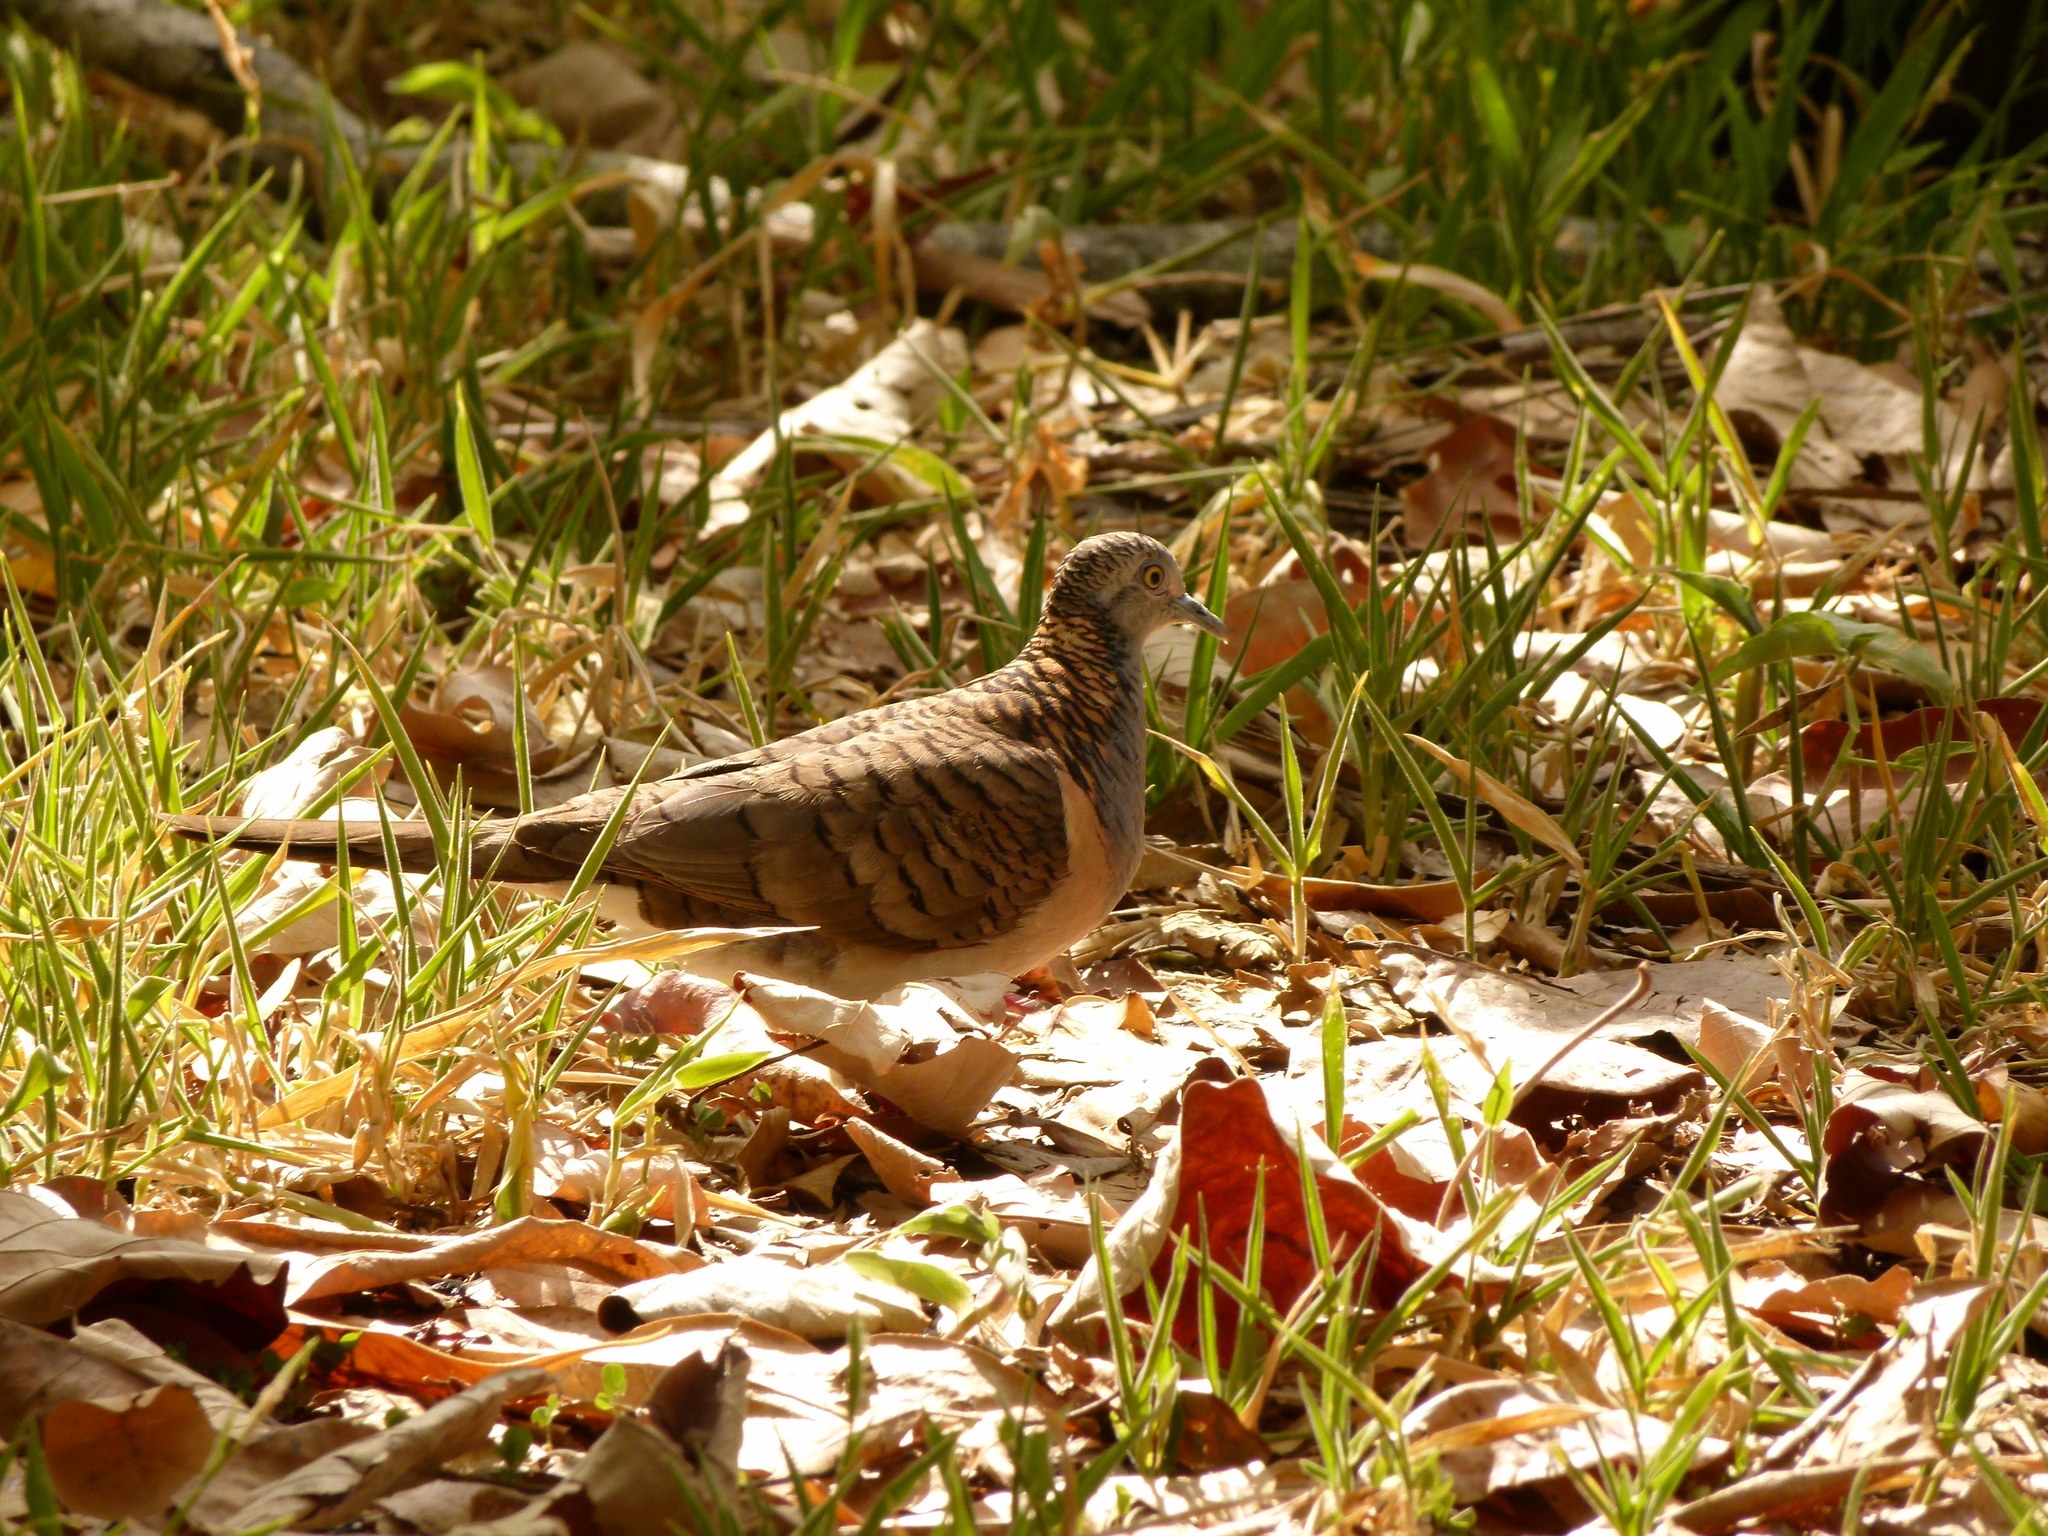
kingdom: Animalia
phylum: Chordata
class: Aves
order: Columbiformes
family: Columbidae
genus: Geopelia
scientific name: Geopelia humeralis
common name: Bar-shouldered dove
